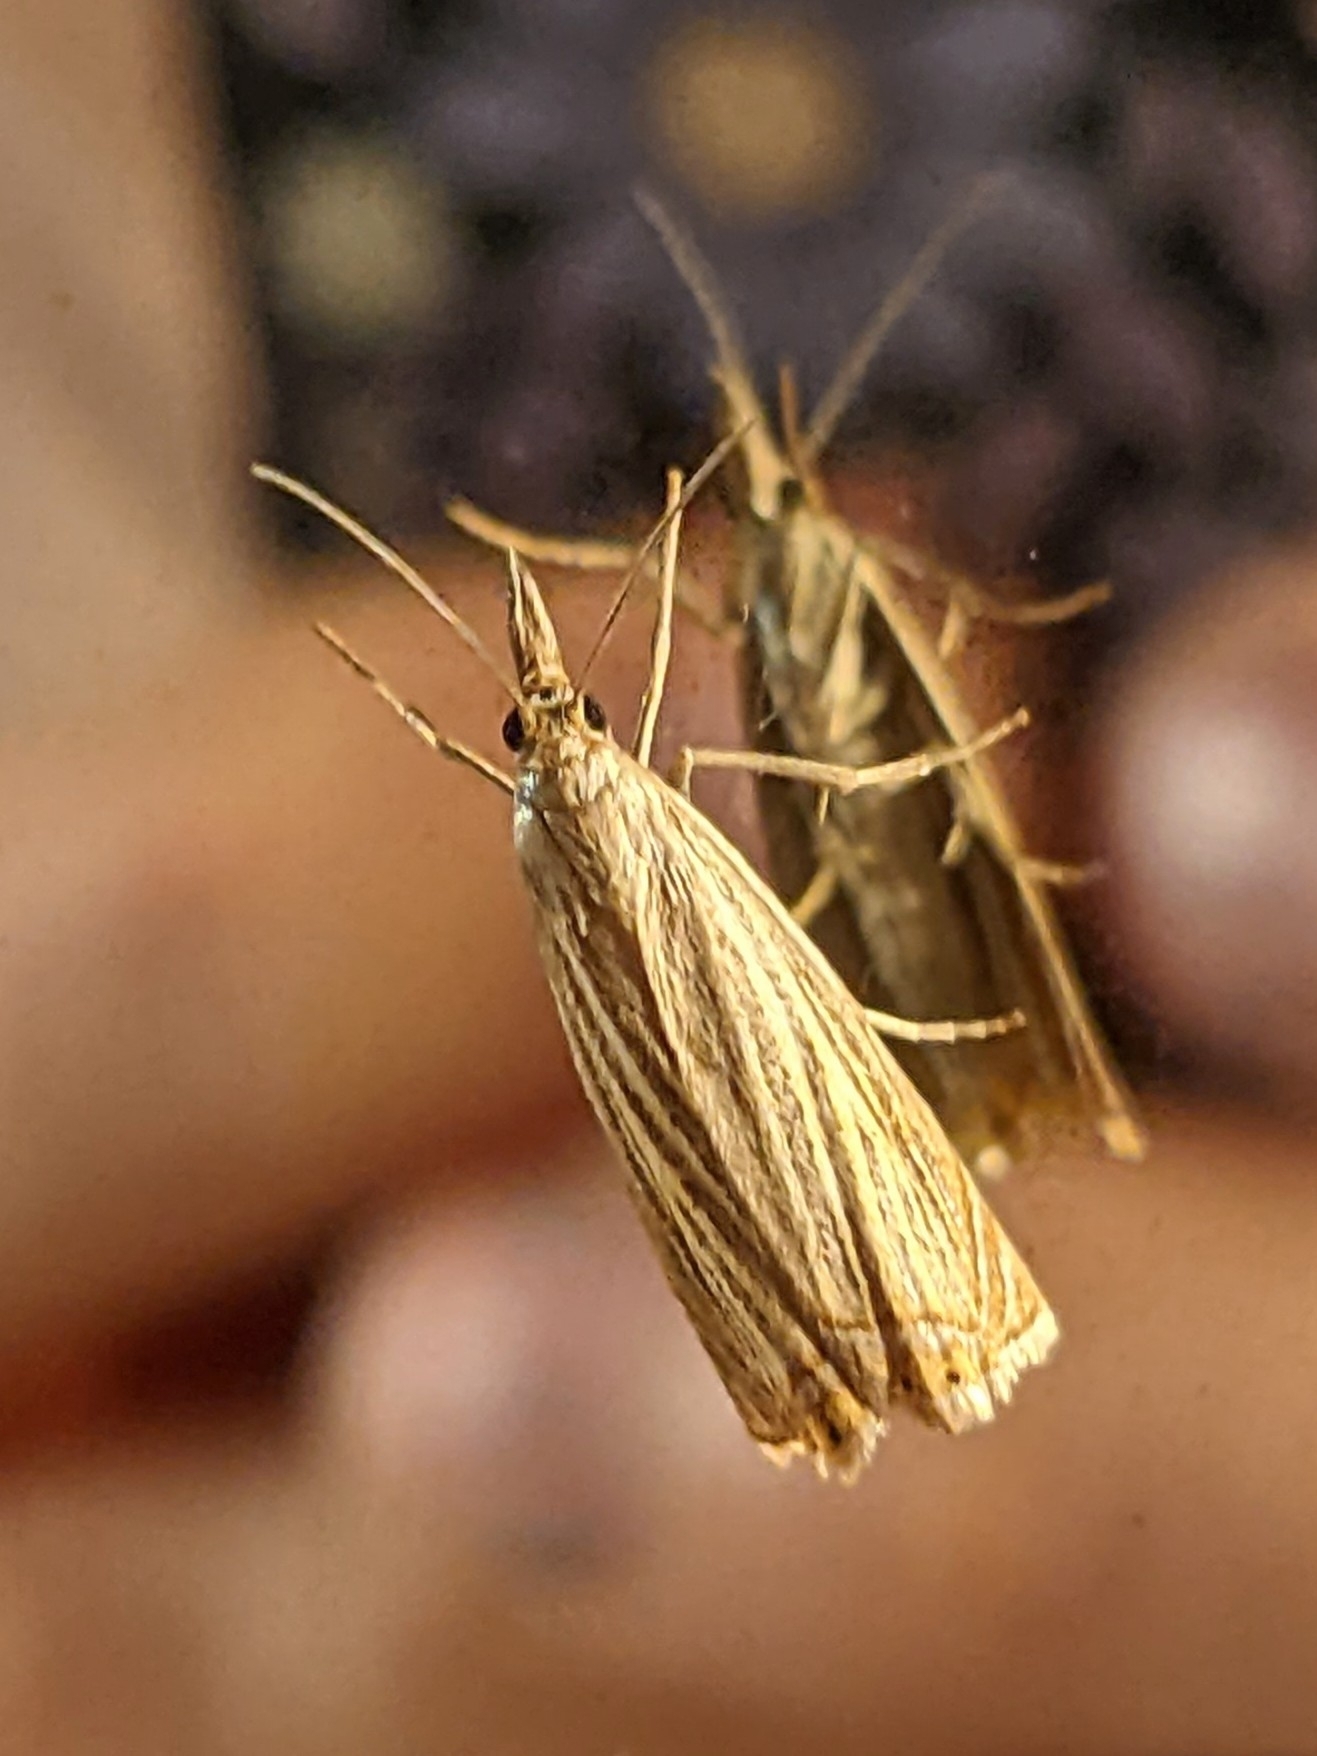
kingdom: Animalia
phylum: Arthropoda
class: Insecta
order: Lepidoptera
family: Crambidae
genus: Chrysoteuchia
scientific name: Chrysoteuchia culmella
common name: Garden grass-veneer
